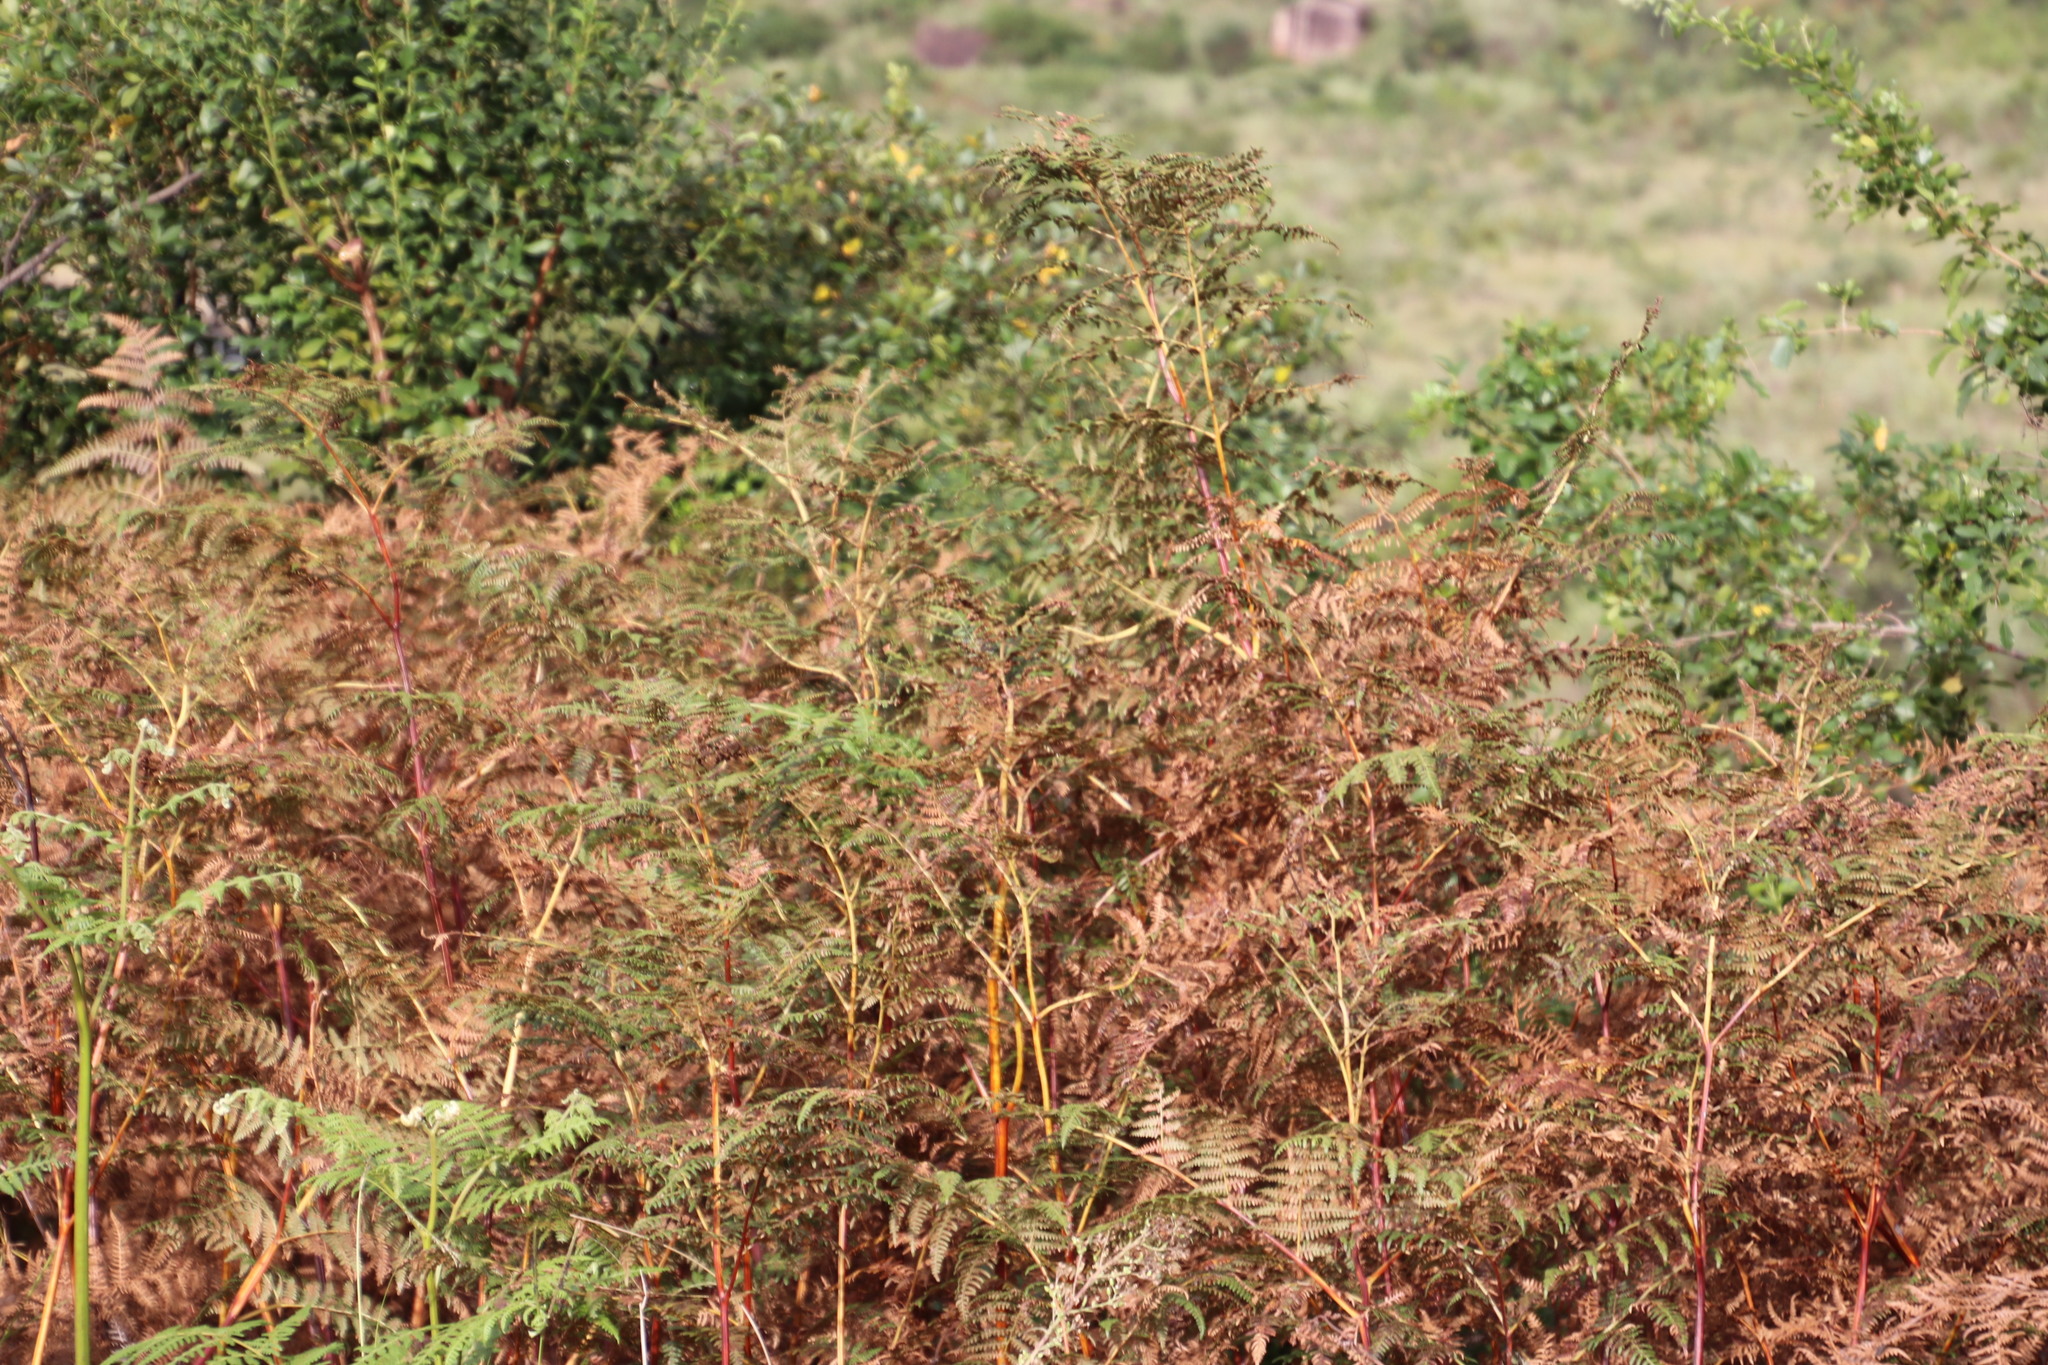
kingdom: Plantae
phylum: Tracheophyta
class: Polypodiopsida
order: Polypodiales
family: Dennstaedtiaceae
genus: Pteridium
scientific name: Pteridium aquilinum
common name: Bracken
